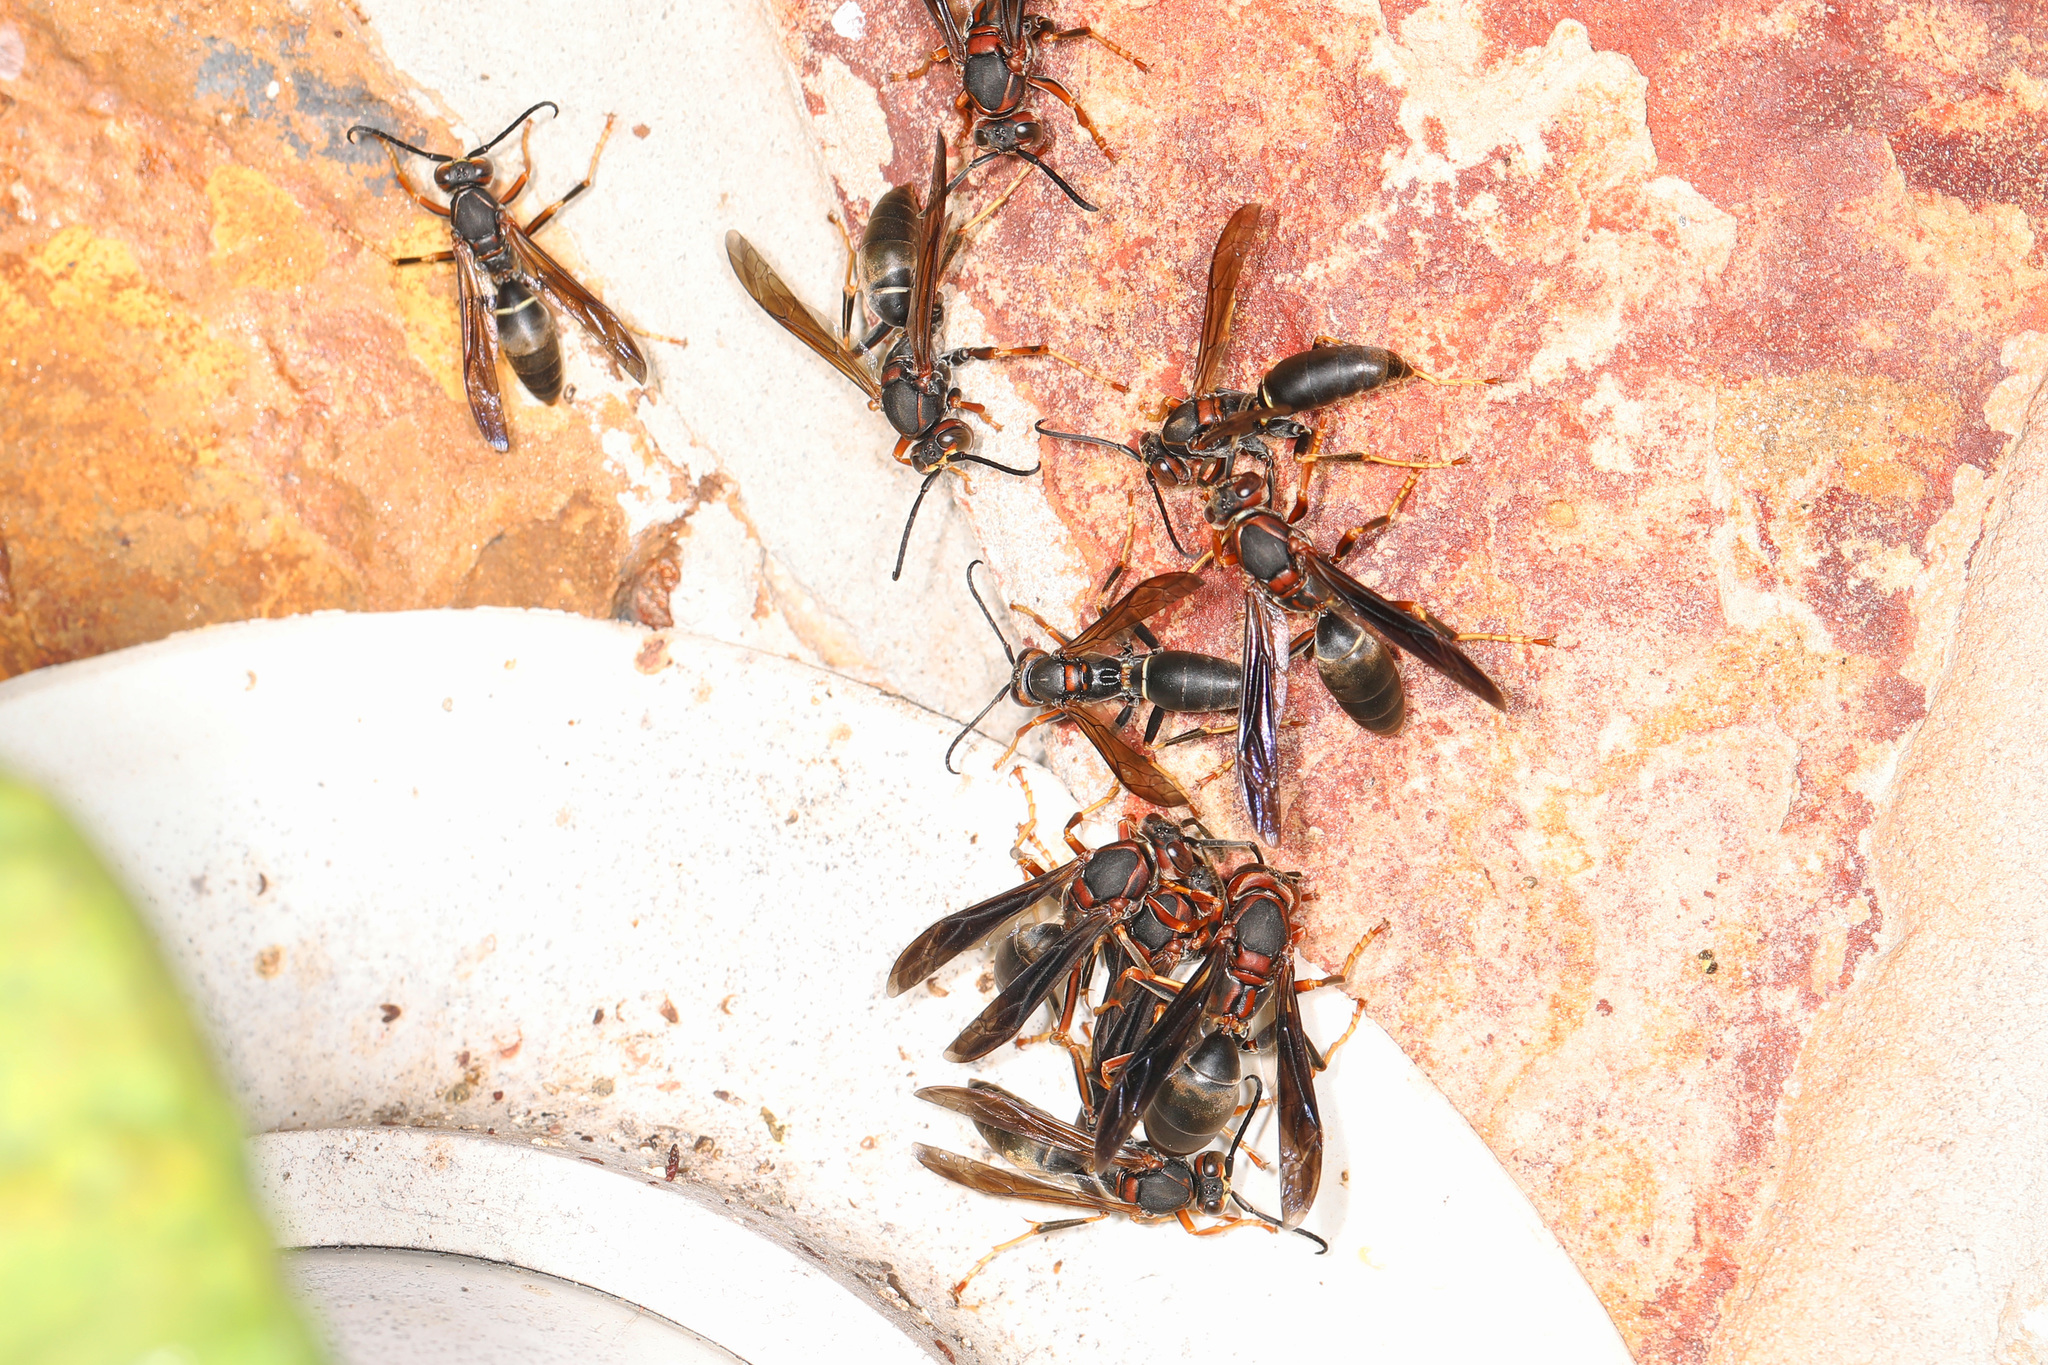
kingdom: Animalia
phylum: Arthropoda
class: Insecta
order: Hymenoptera
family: Eumenidae
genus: Polistes
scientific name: Polistes fuscatus
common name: Dark paper wasp
